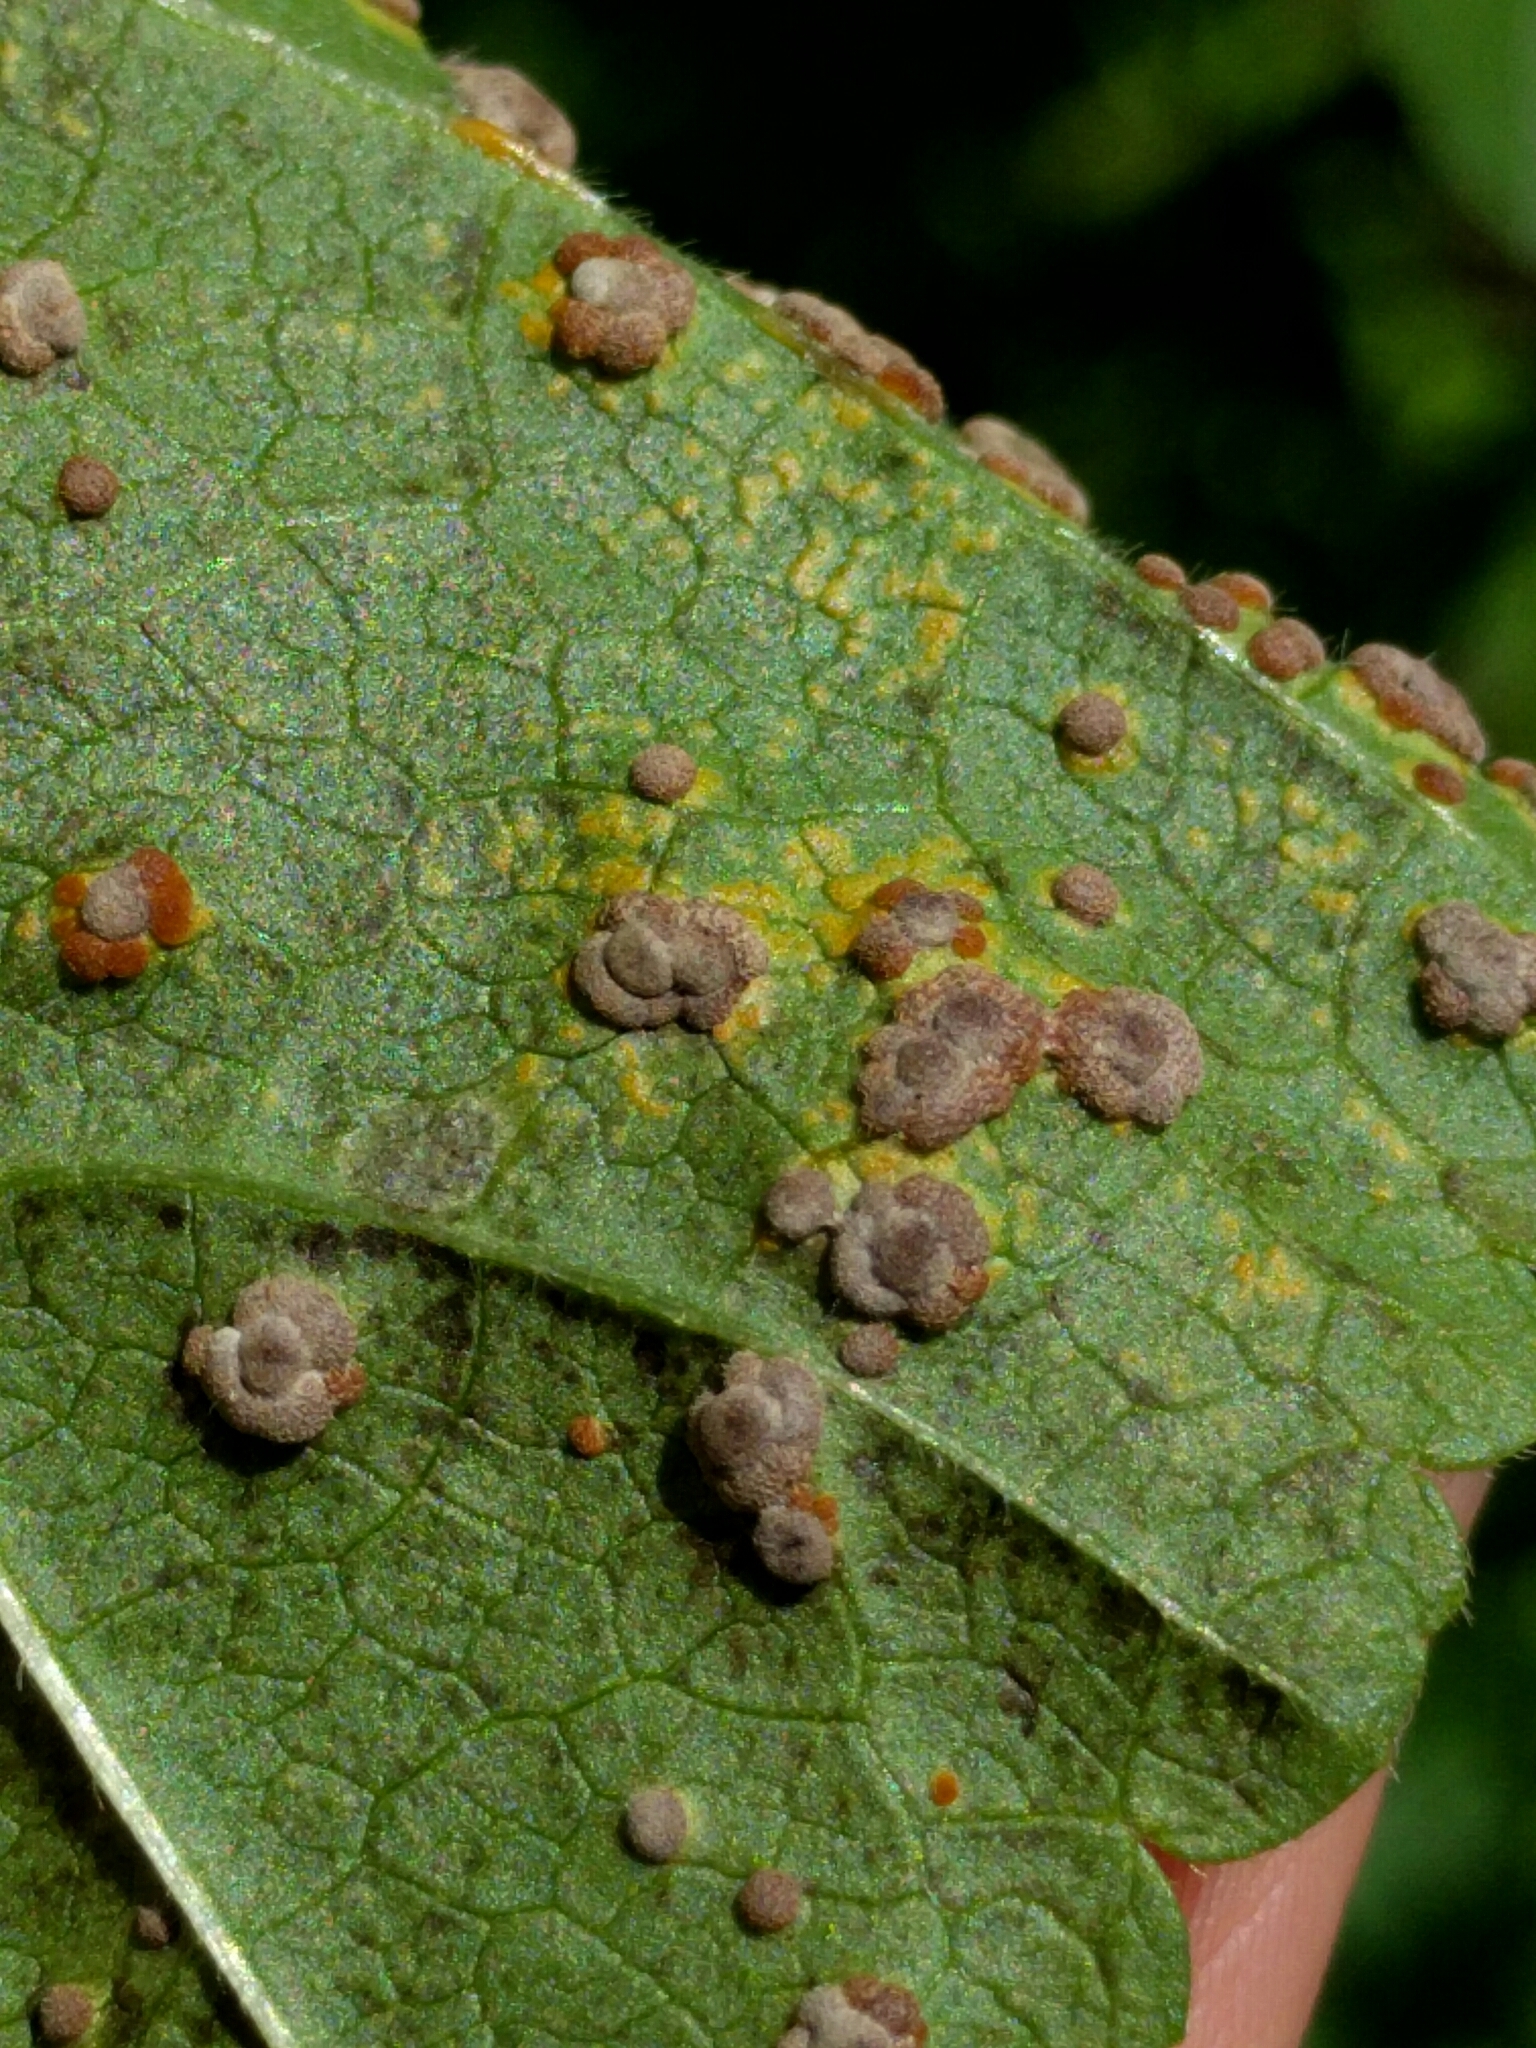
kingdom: Fungi
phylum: Basidiomycota
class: Pucciniomycetes
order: Pucciniales
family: Pucciniaceae
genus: Puccinia
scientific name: Puccinia malvacearum
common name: Hollyhock rust
